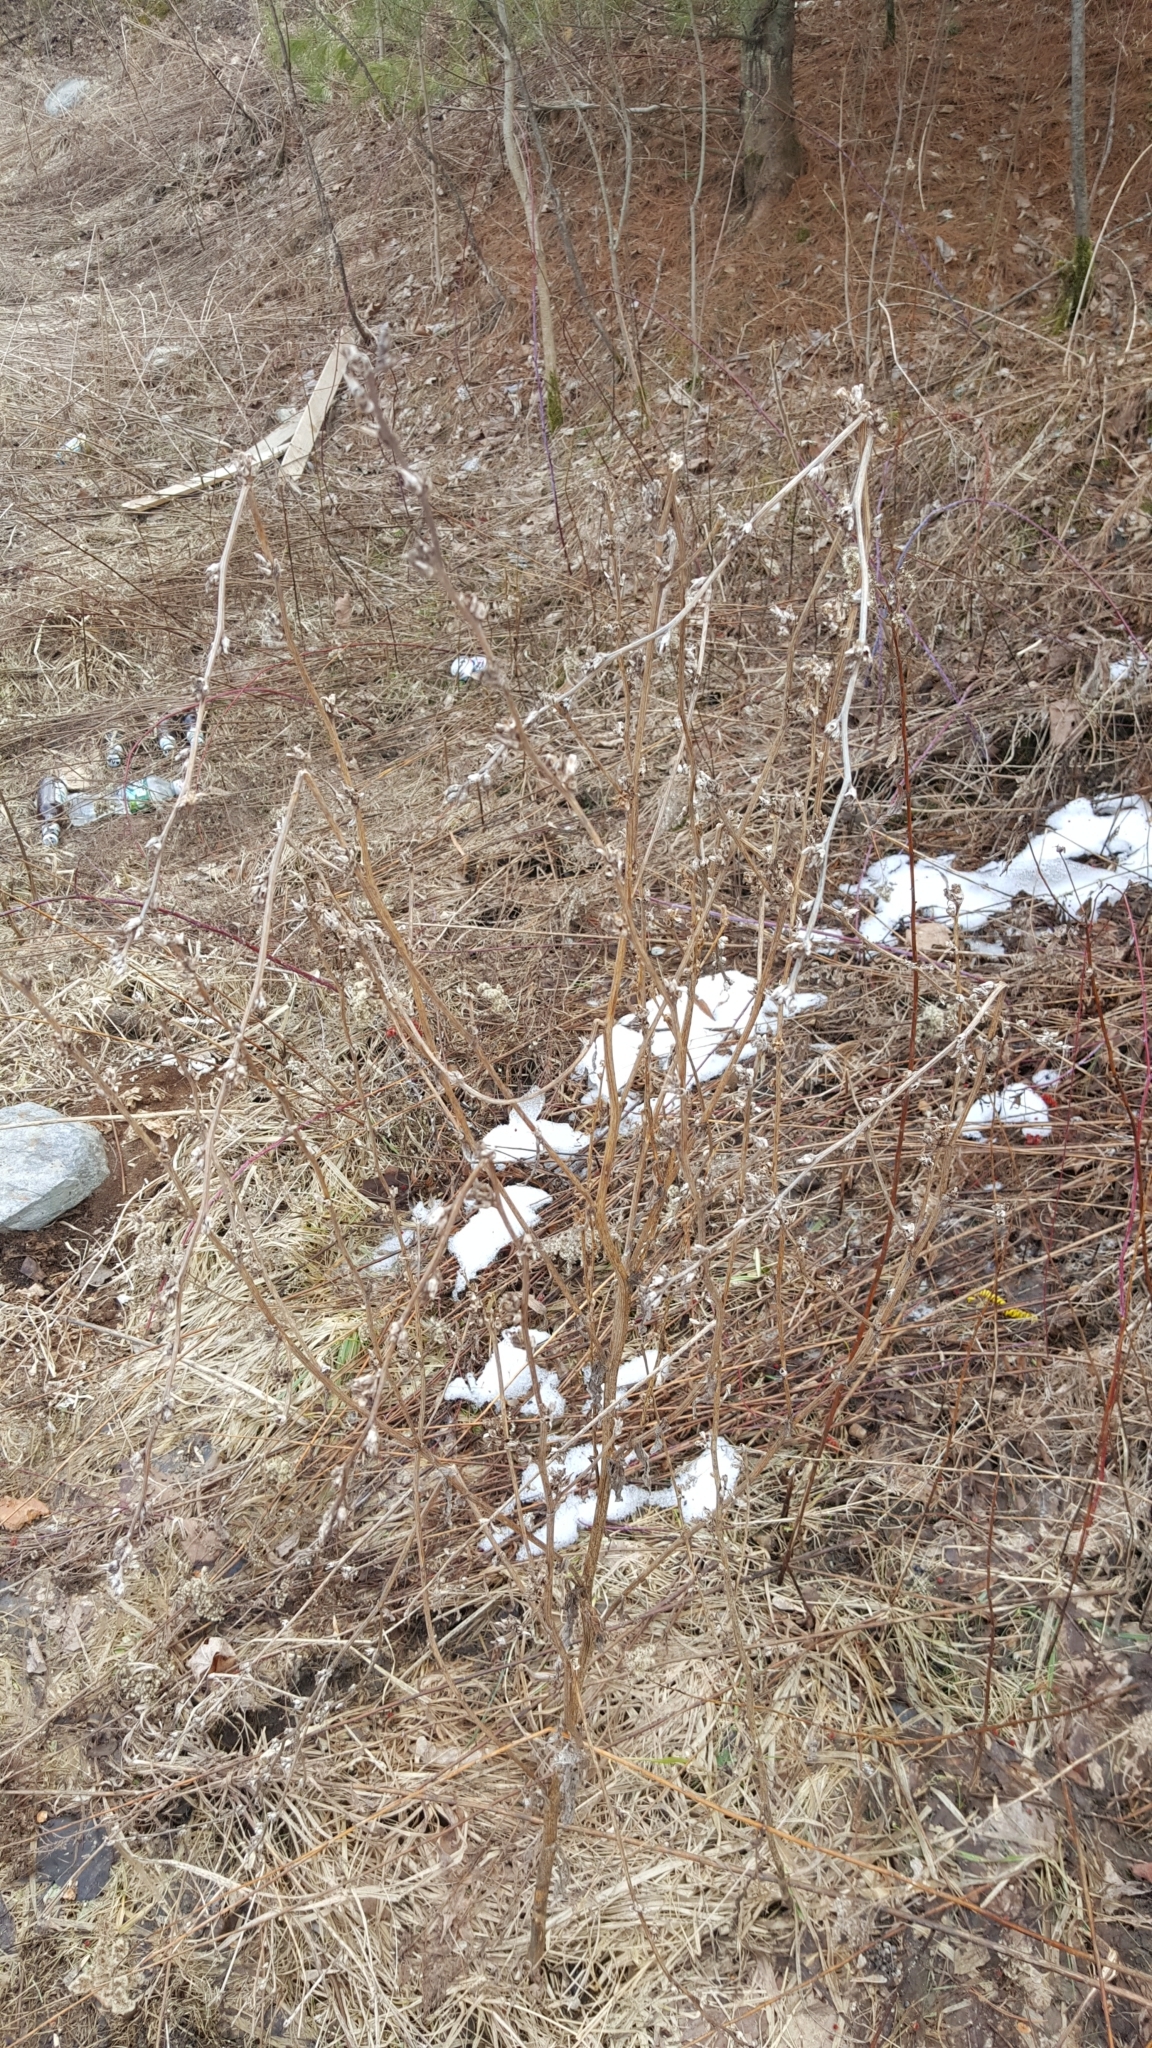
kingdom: Plantae
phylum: Tracheophyta
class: Magnoliopsida
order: Asterales
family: Asteraceae
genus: Cichorium
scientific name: Cichorium intybus
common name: Chicory
